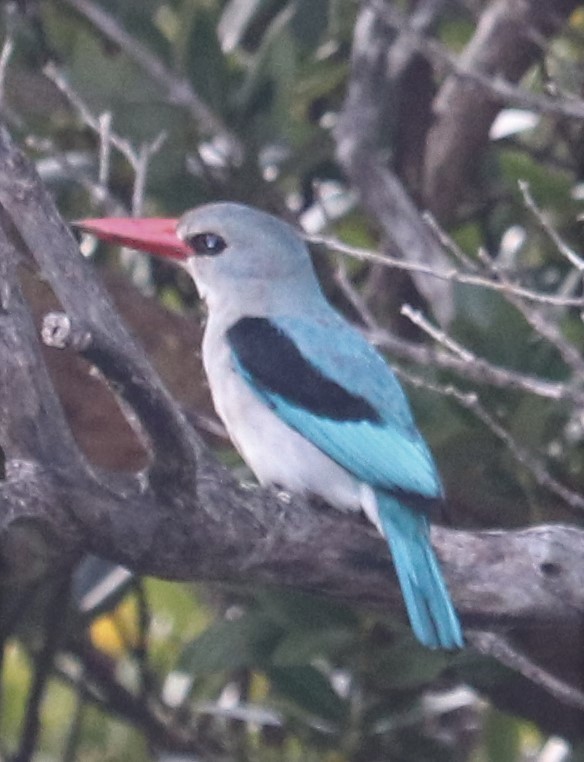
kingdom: Animalia
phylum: Chordata
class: Aves
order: Coraciiformes
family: Alcedinidae
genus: Halcyon
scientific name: Halcyon senegaloides
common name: Mangrove kingfisher
